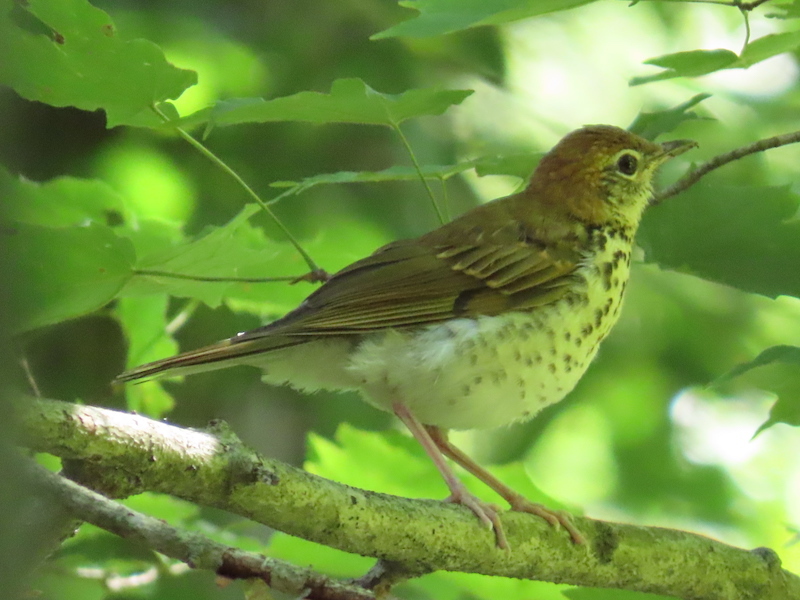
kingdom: Animalia
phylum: Chordata
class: Aves
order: Passeriformes
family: Turdidae
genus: Hylocichla
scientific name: Hylocichla mustelina
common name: Wood thrush
